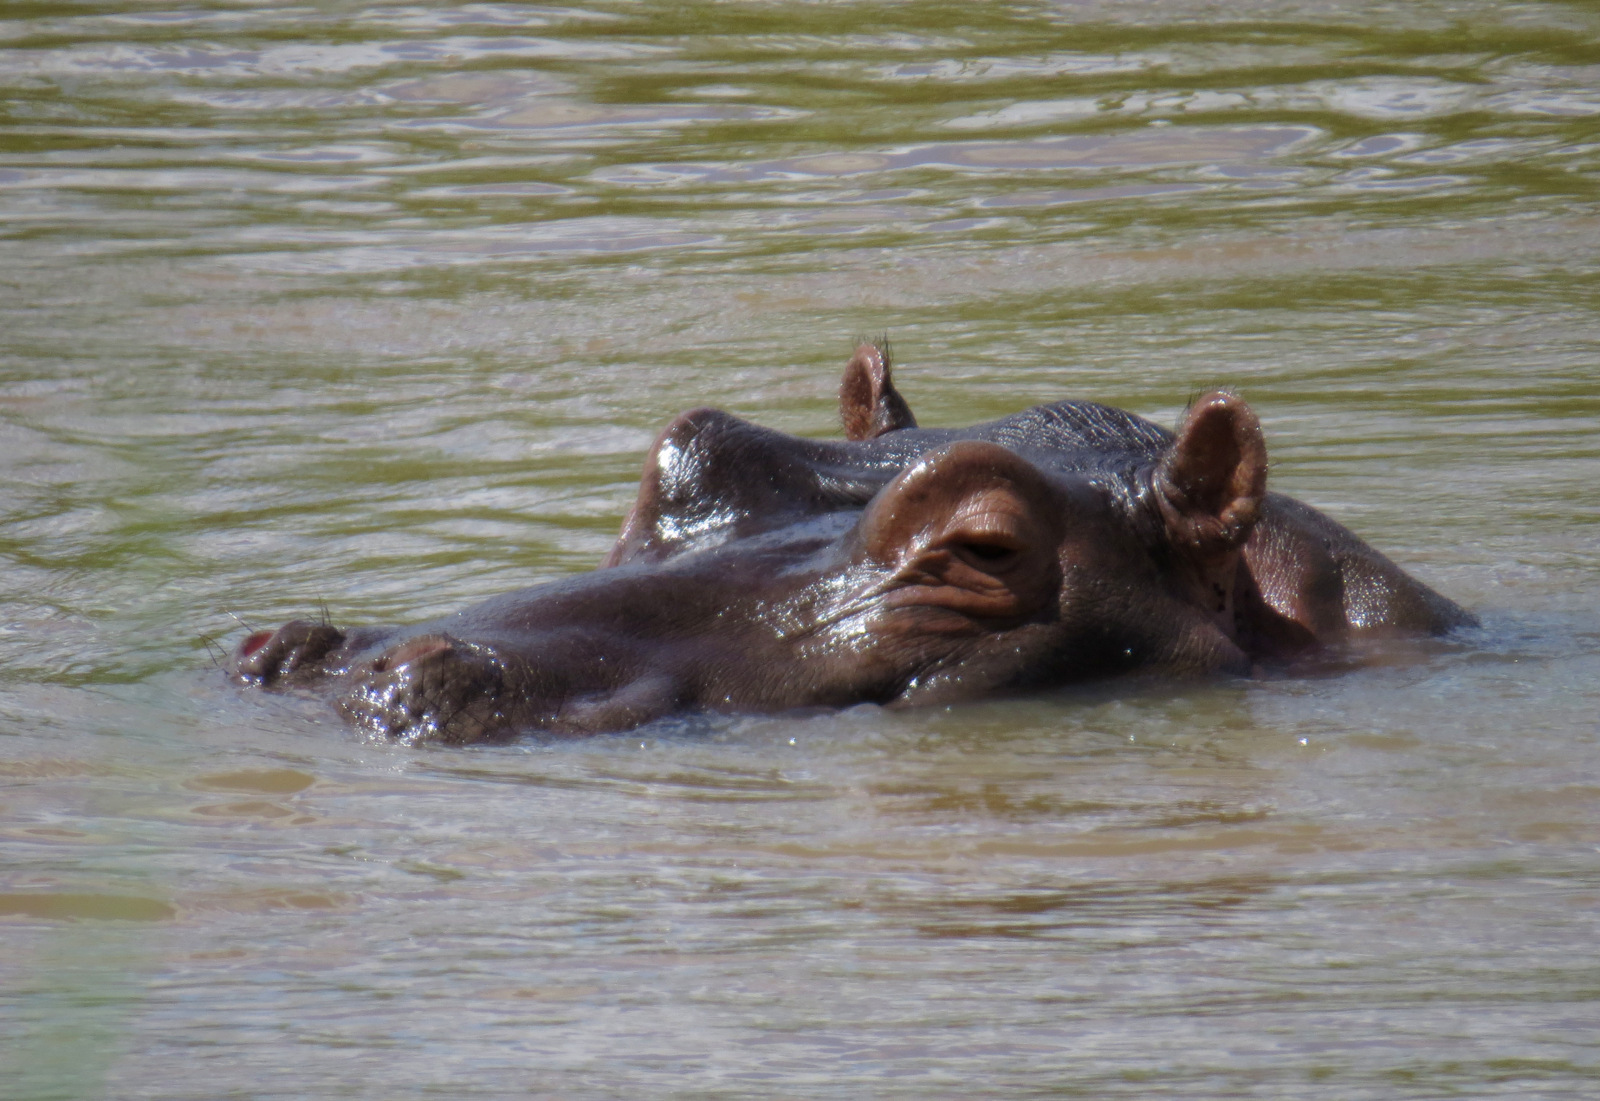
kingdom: Animalia
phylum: Chordata
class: Mammalia
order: Artiodactyla
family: Hippopotamidae
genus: Hippopotamus
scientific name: Hippopotamus amphibius
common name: Common hippopotamus
